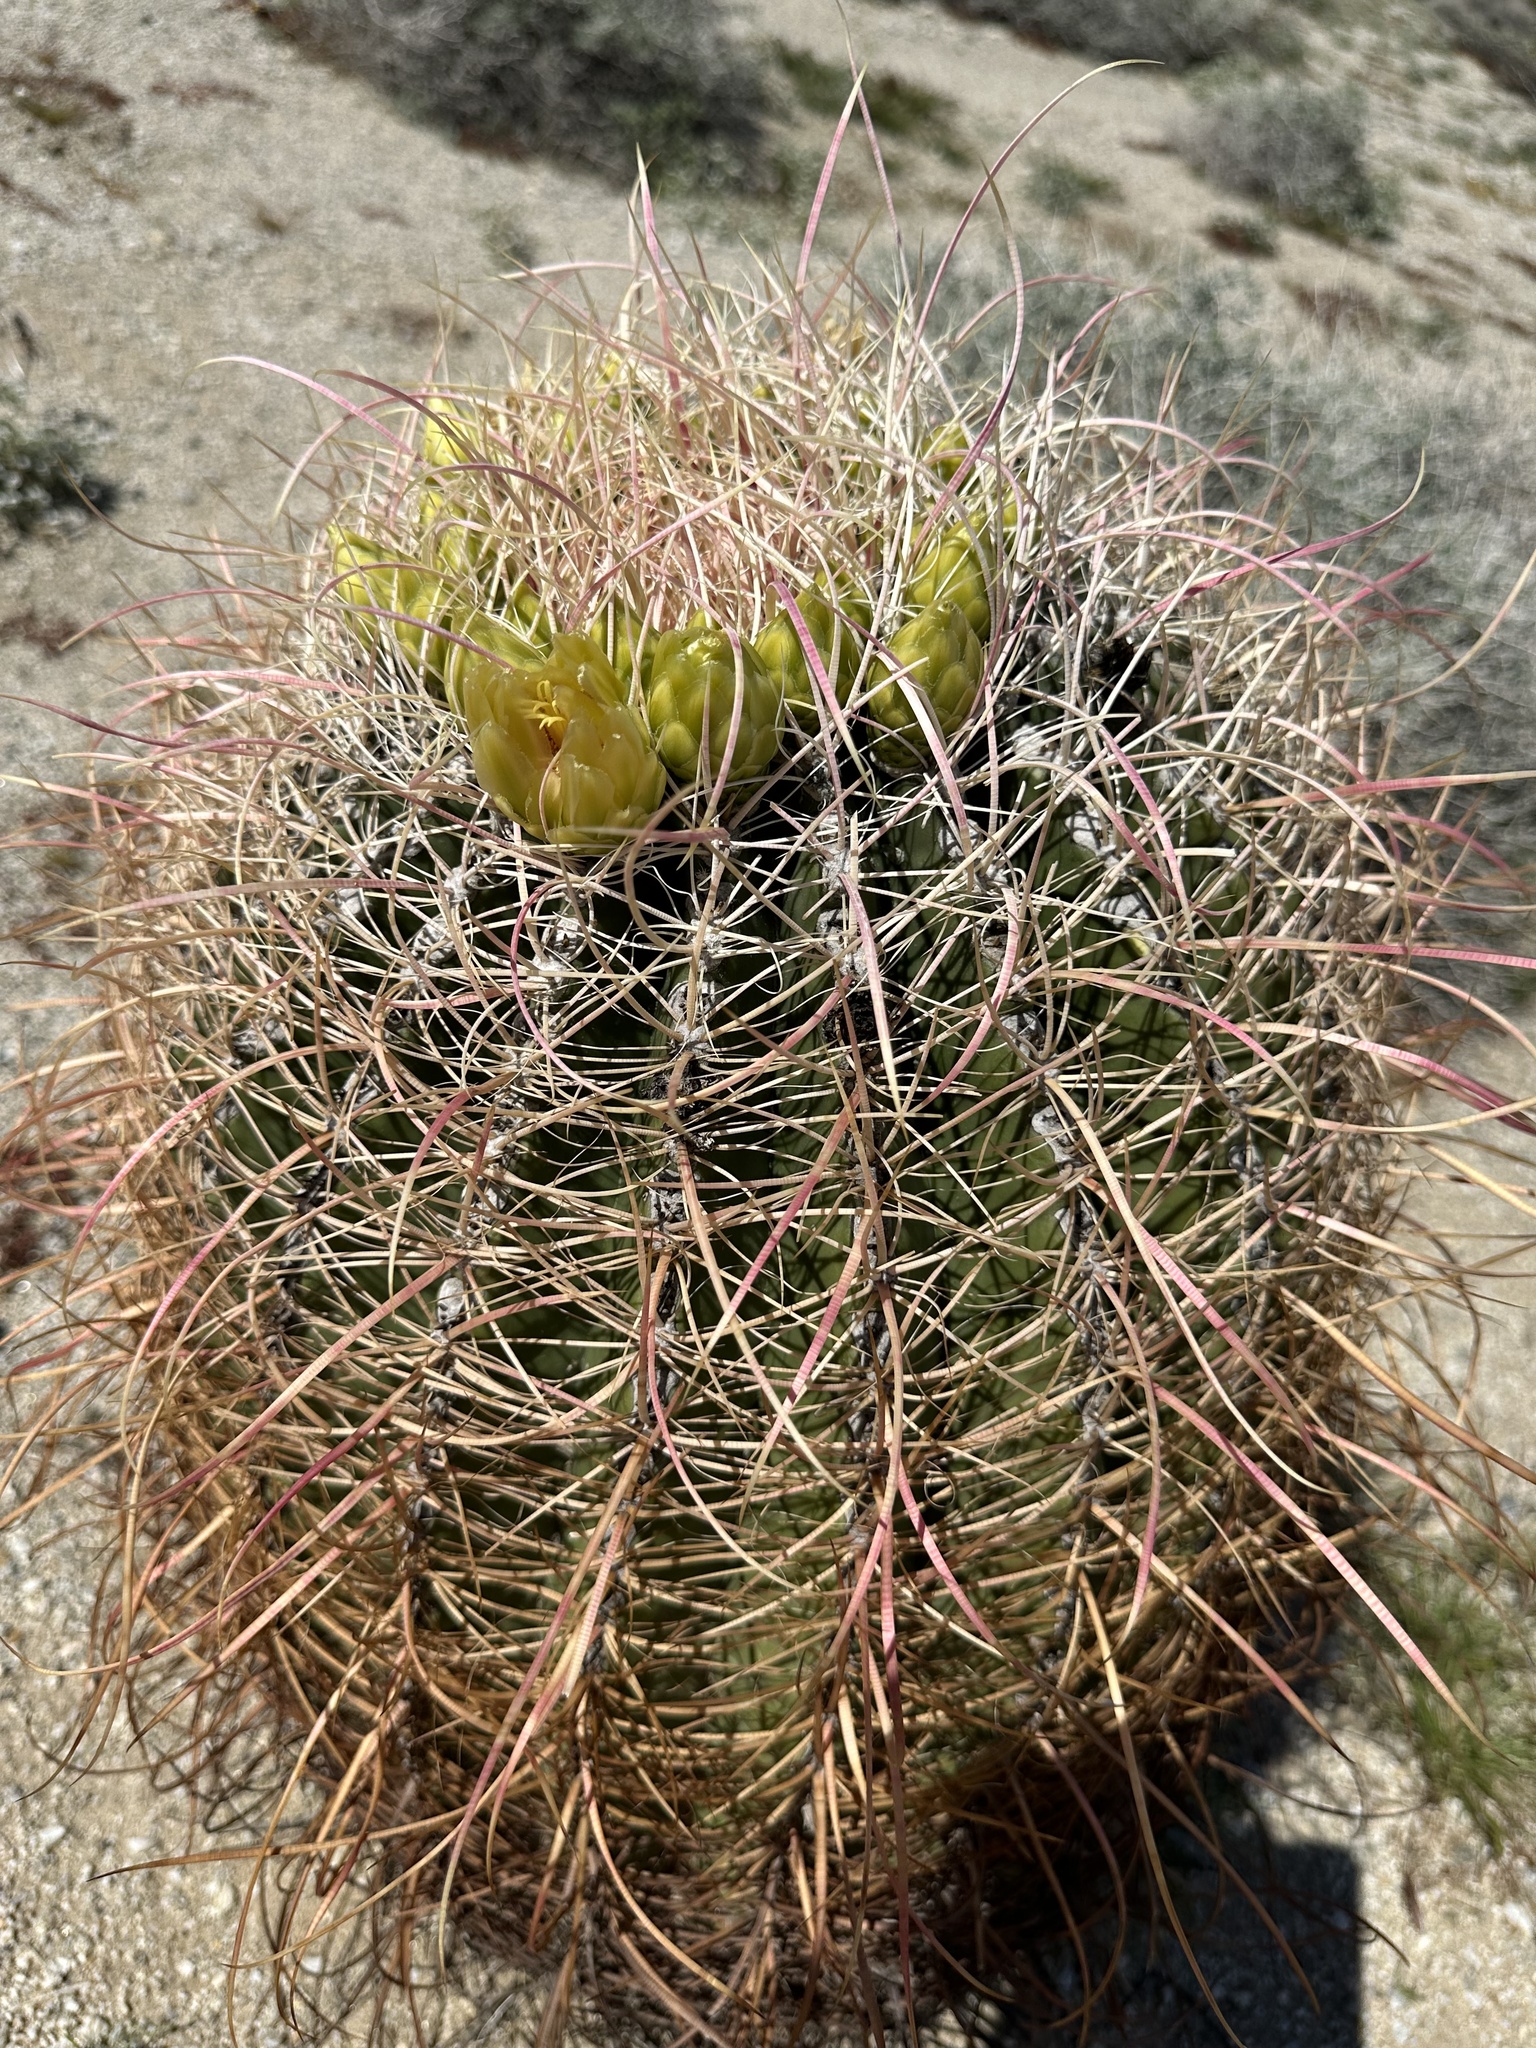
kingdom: Plantae
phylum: Tracheophyta
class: Magnoliopsida
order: Caryophyllales
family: Cactaceae
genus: Ferocactus
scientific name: Ferocactus cylindraceus
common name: California barrel cactus
